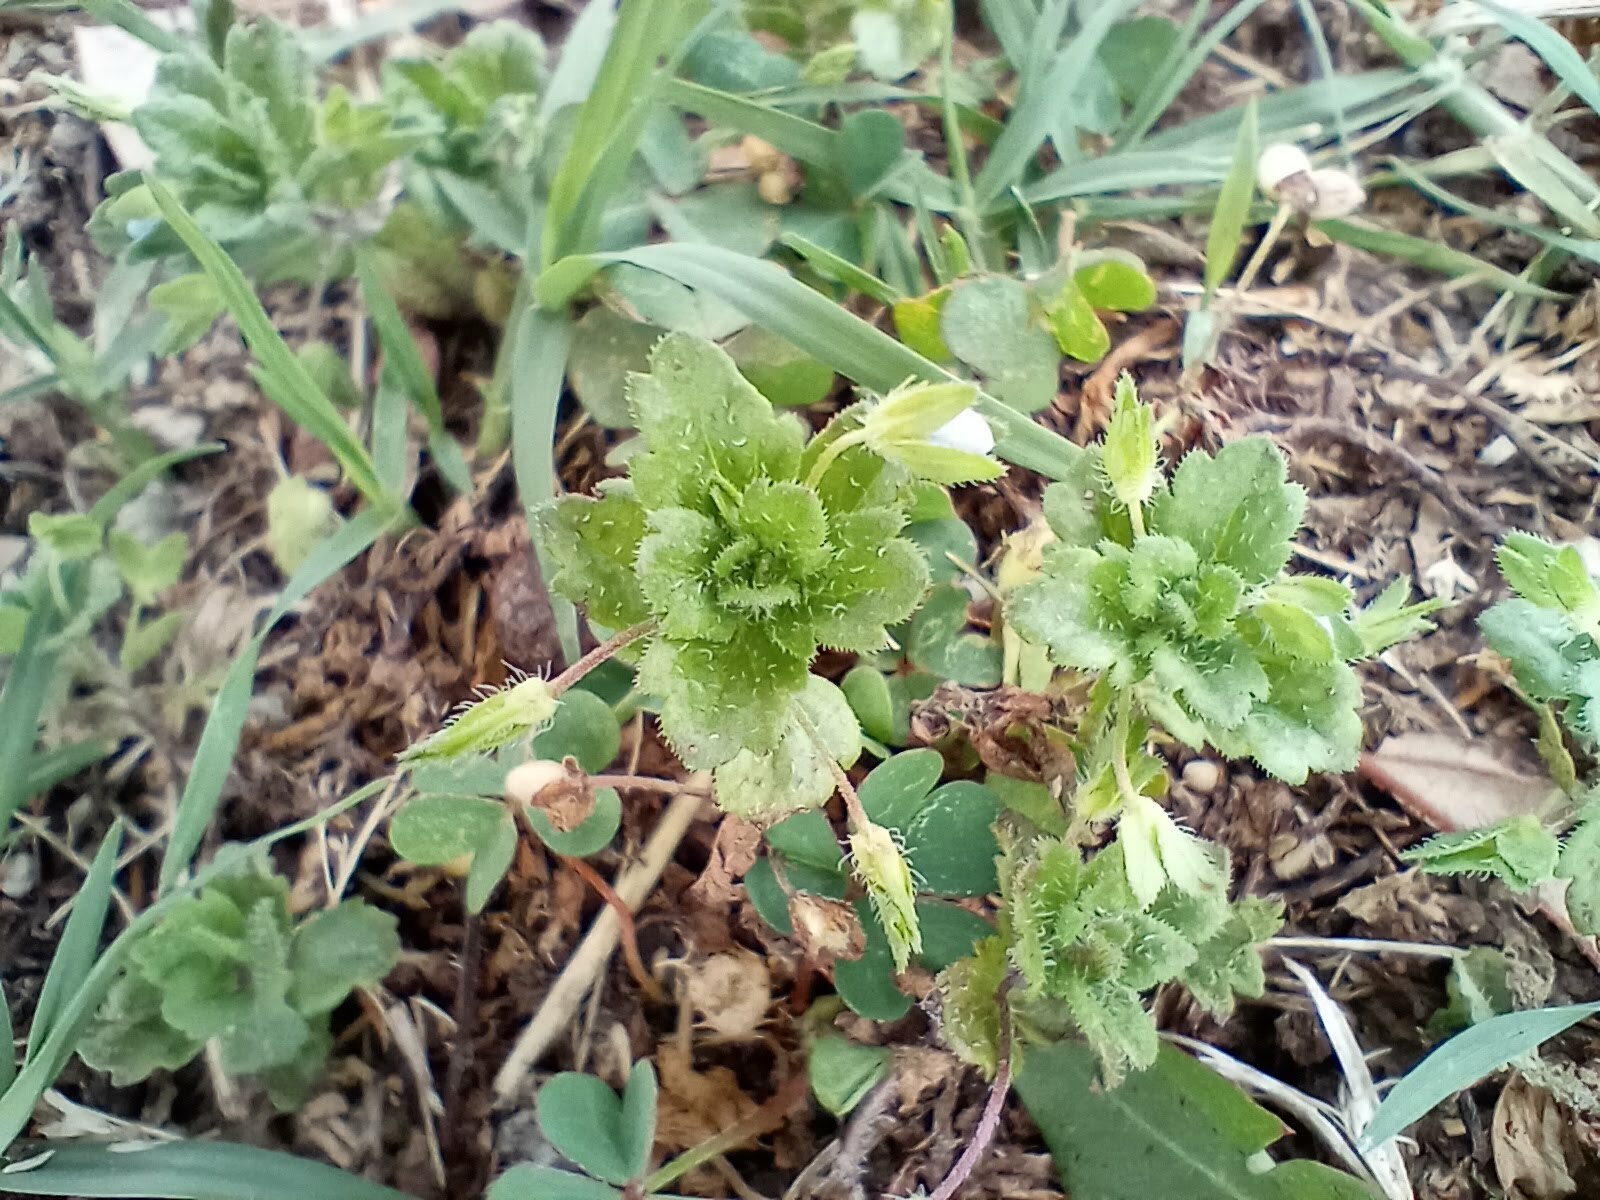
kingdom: Plantae
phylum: Tracheophyta
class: Magnoliopsida
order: Lamiales
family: Plantaginaceae
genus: Veronica
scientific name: Veronica persica
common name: Common field-speedwell
